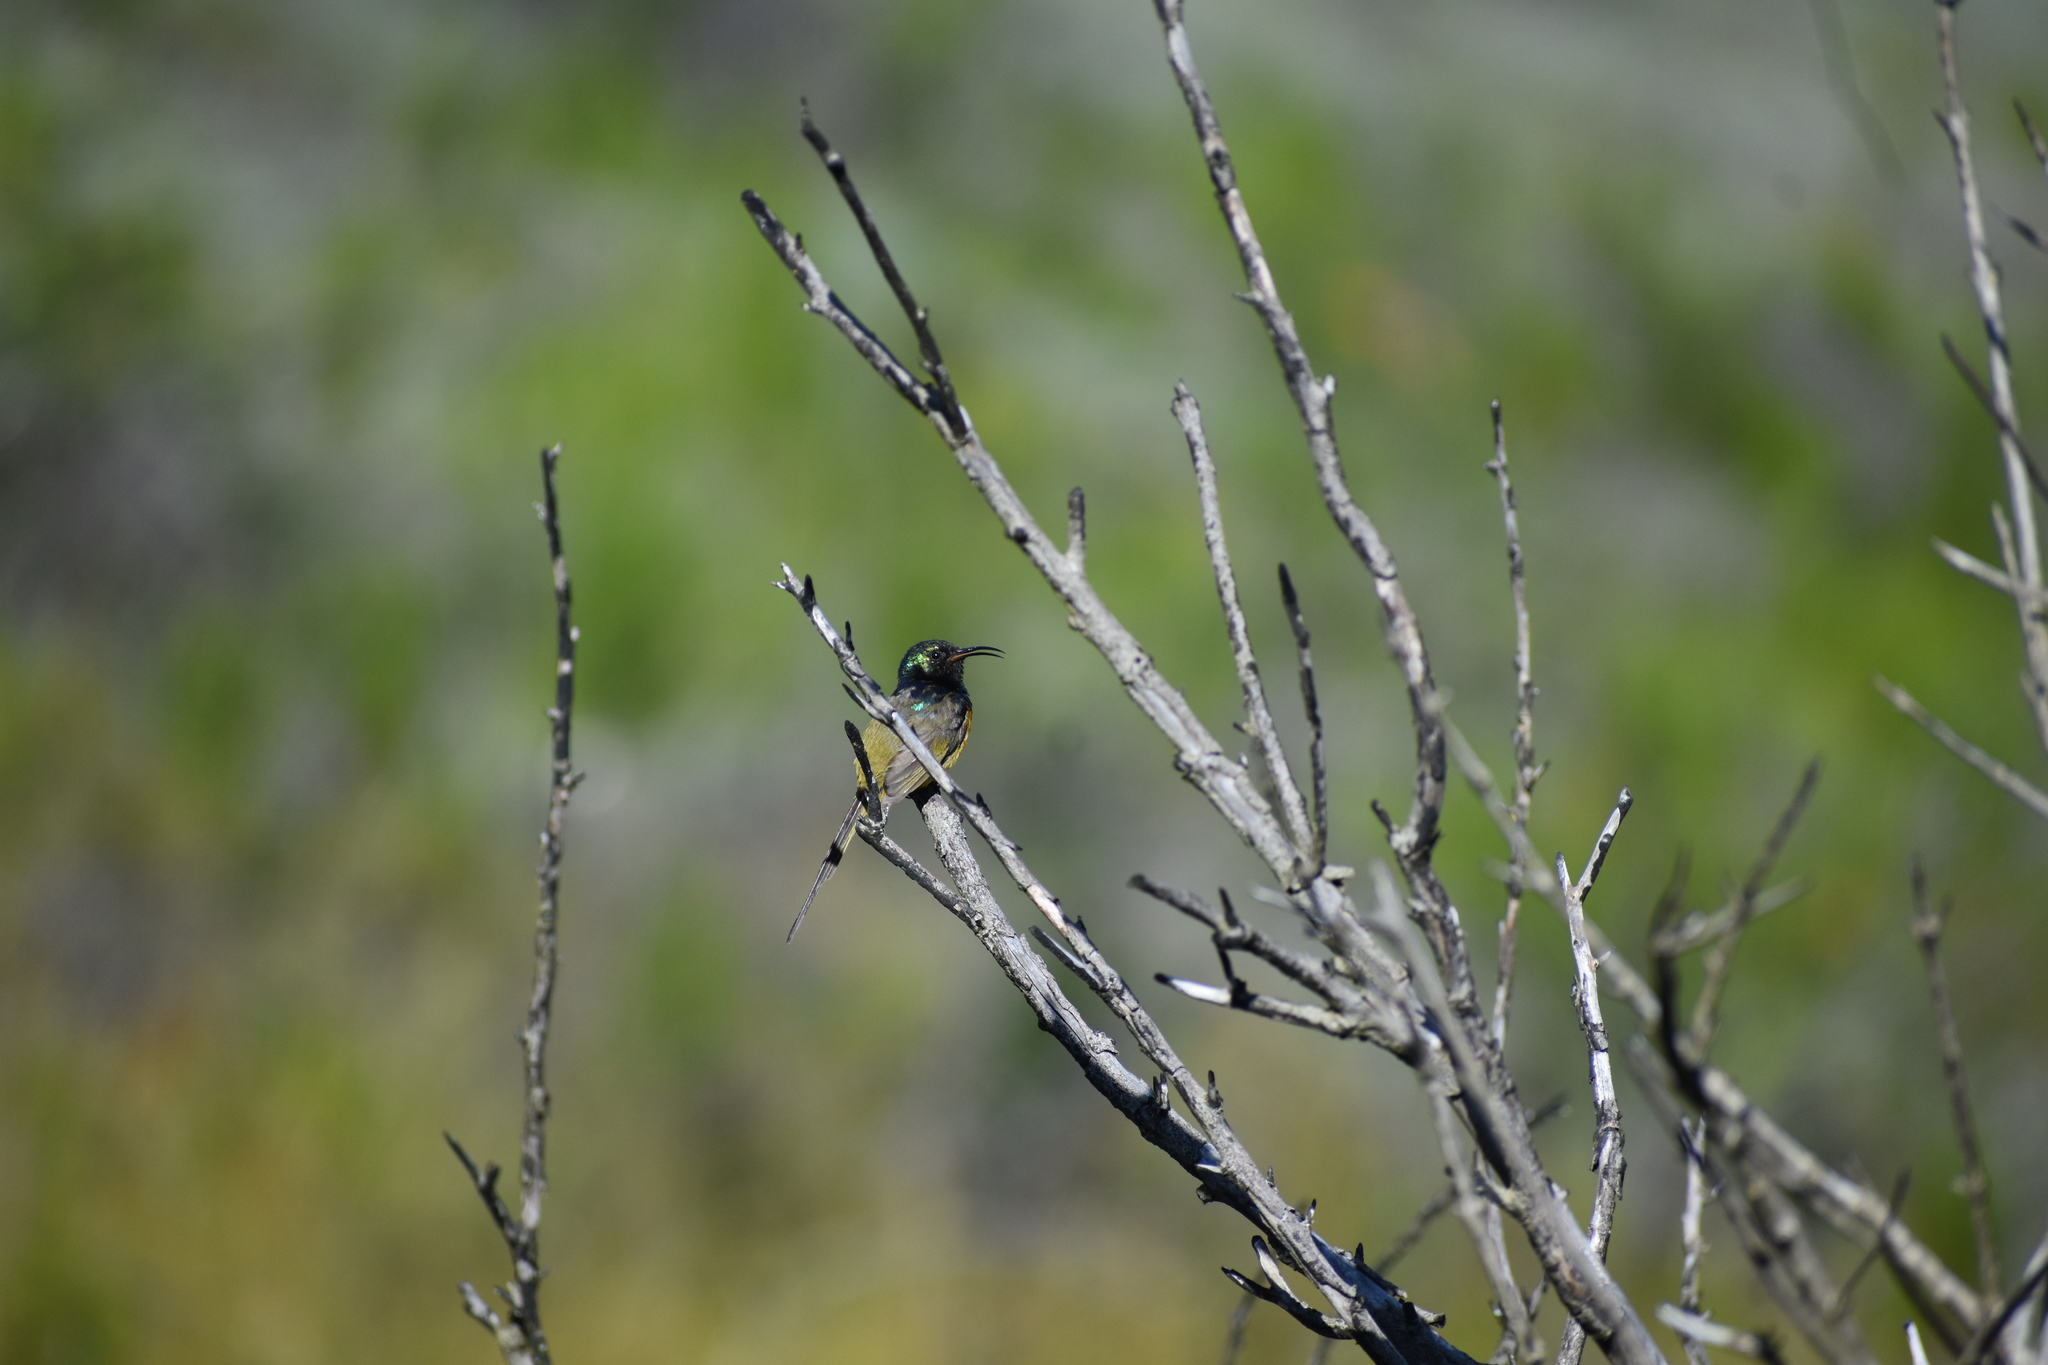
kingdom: Animalia
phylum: Chordata
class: Aves
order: Passeriformes
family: Nectariniidae
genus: Anthobaphes
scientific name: Anthobaphes violacea
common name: Orange-breasted sunbird
